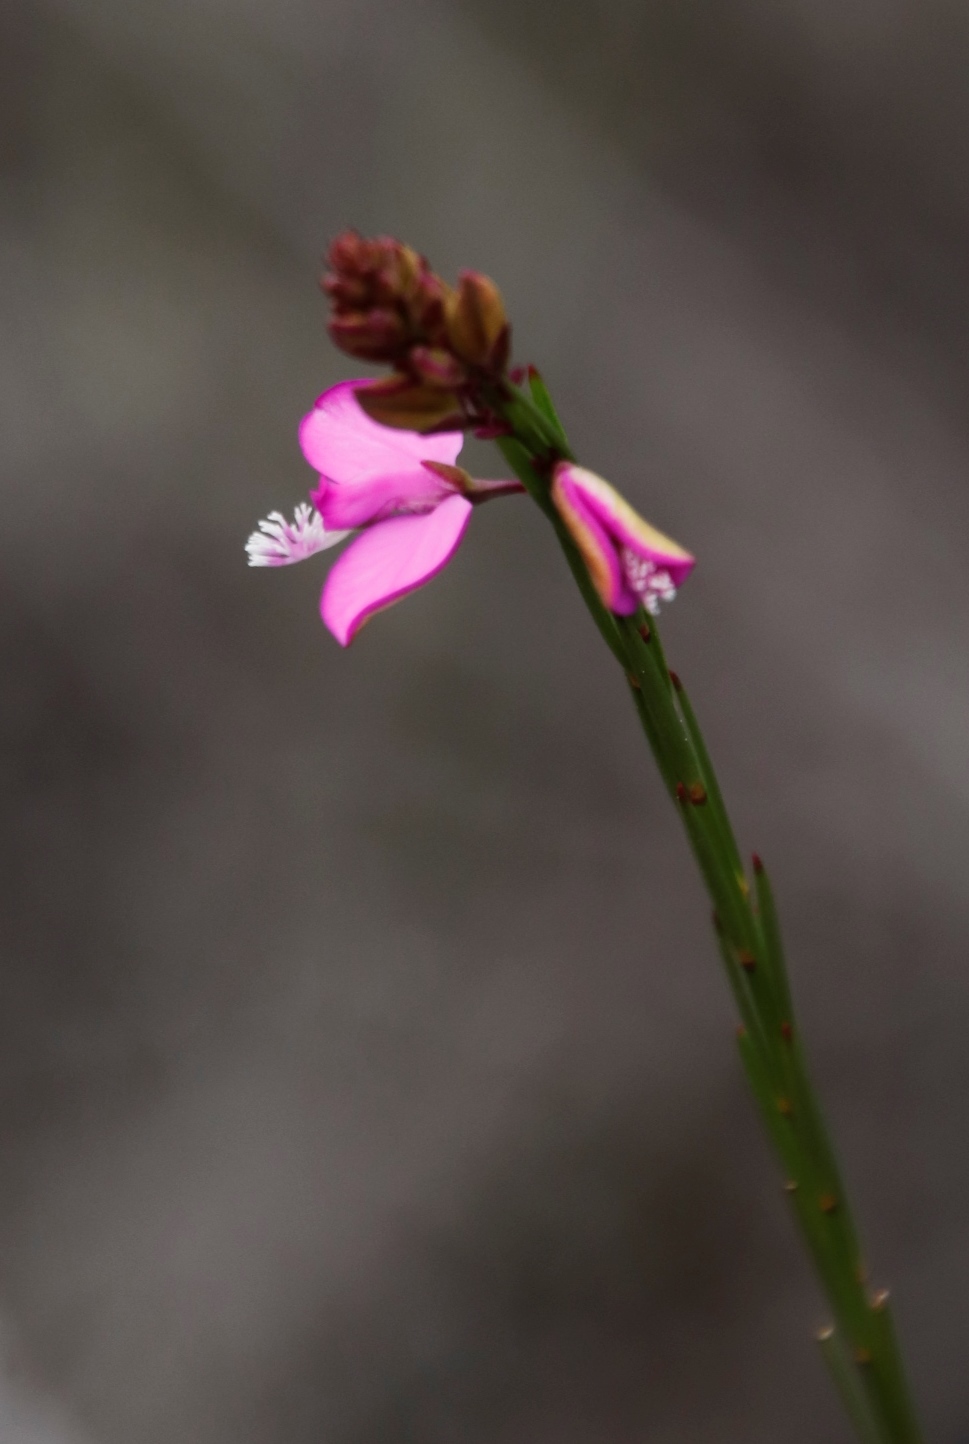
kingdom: Plantae
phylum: Tracheophyta
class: Magnoliopsida
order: Fabales
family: Polygalaceae
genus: Polygala
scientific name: Polygala garcini
